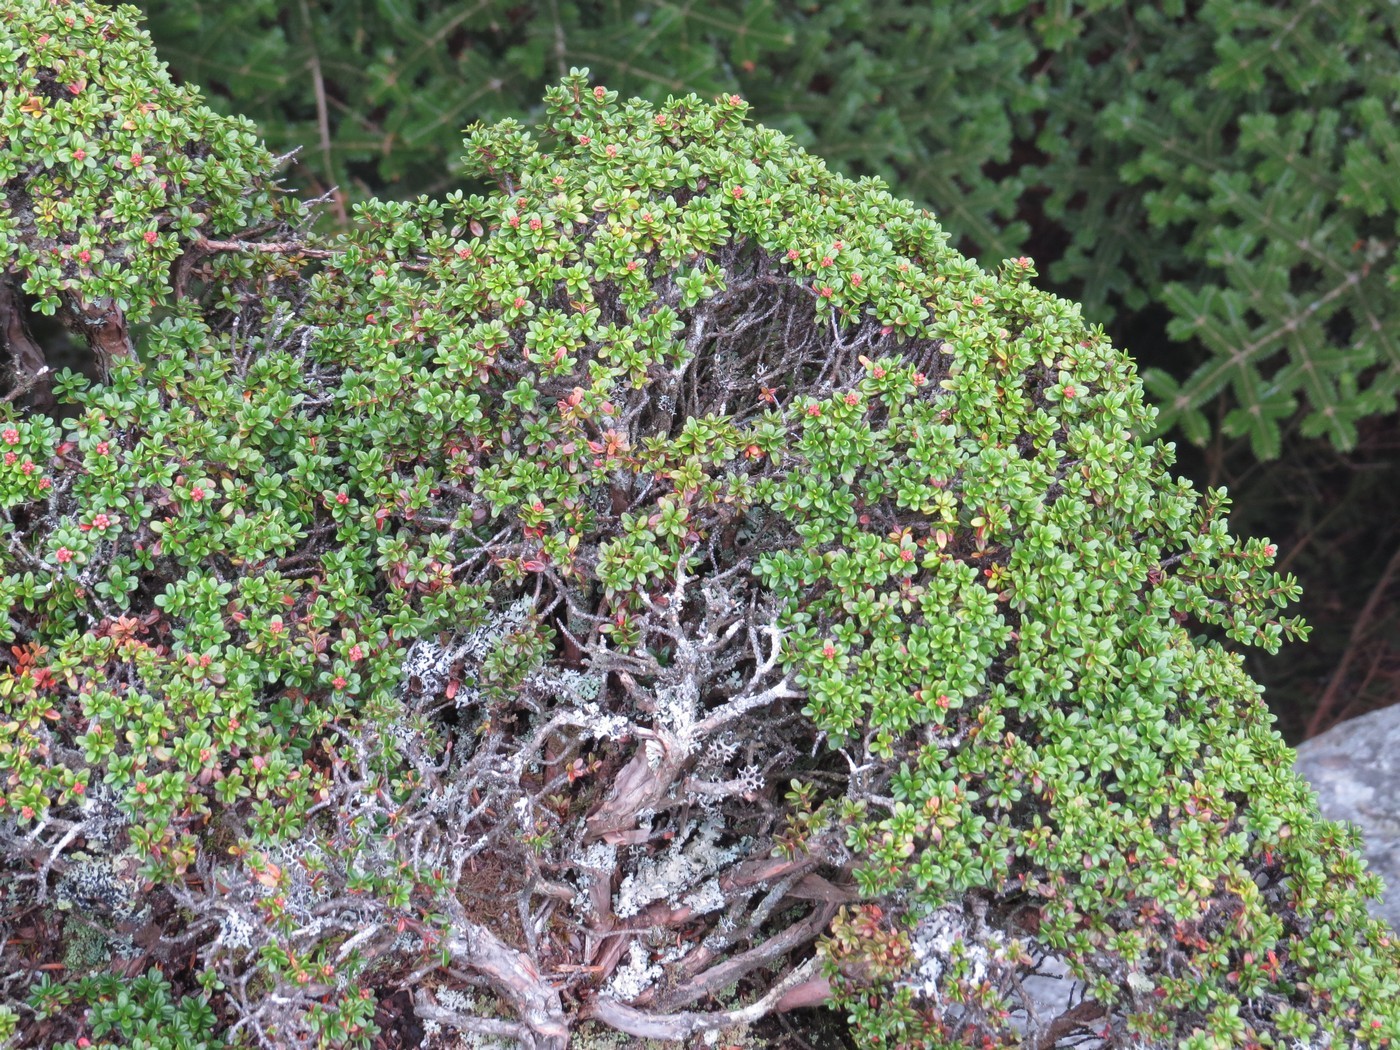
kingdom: Plantae
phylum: Tracheophyta
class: Magnoliopsida
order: Ericales
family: Ericaceae
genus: Kalmia
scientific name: Kalmia buxifolia
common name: Sandmyrtle
